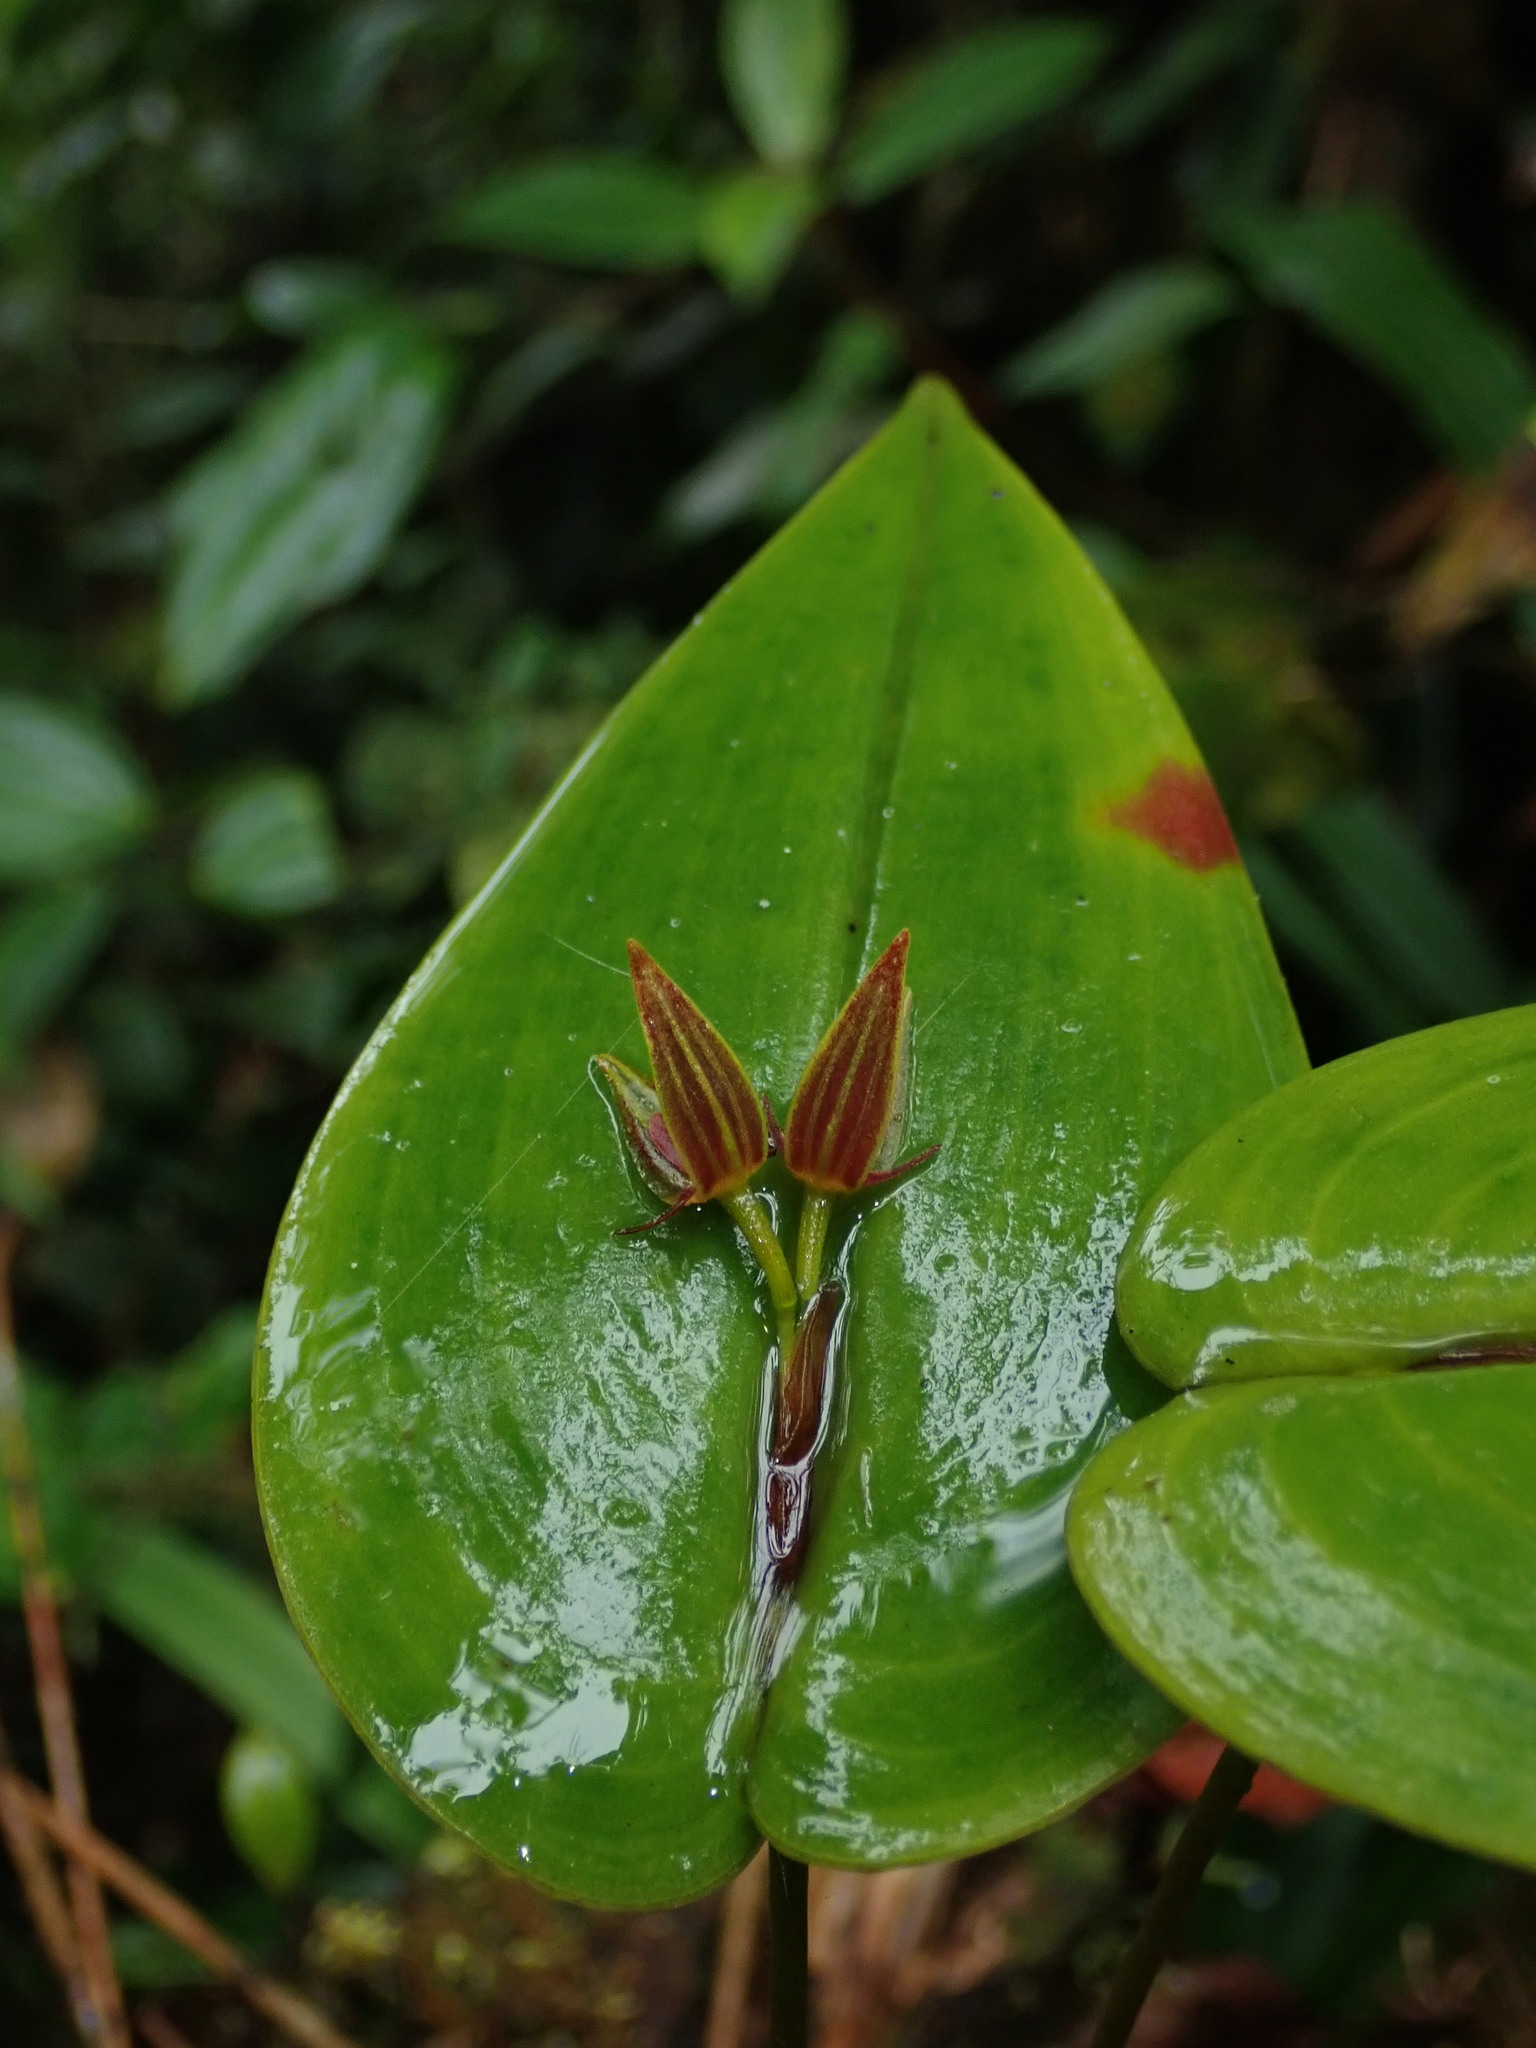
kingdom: Plantae
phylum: Tracheophyta
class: Liliopsida
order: Asparagales
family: Orchidaceae
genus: Pleurothallis
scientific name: Pleurothallis coriacardia
